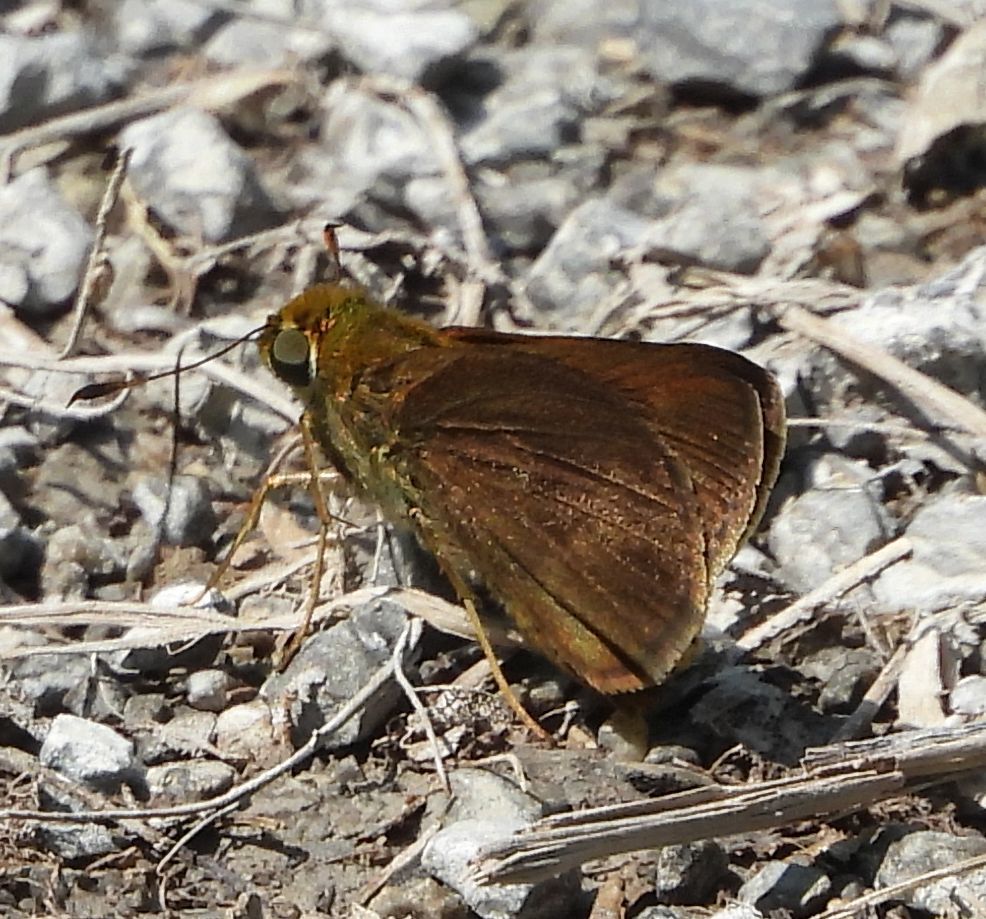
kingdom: Animalia
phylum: Arthropoda
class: Insecta
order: Lepidoptera
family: Hesperiidae
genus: Euphyes
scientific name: Euphyes vestris
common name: Dun skipper
